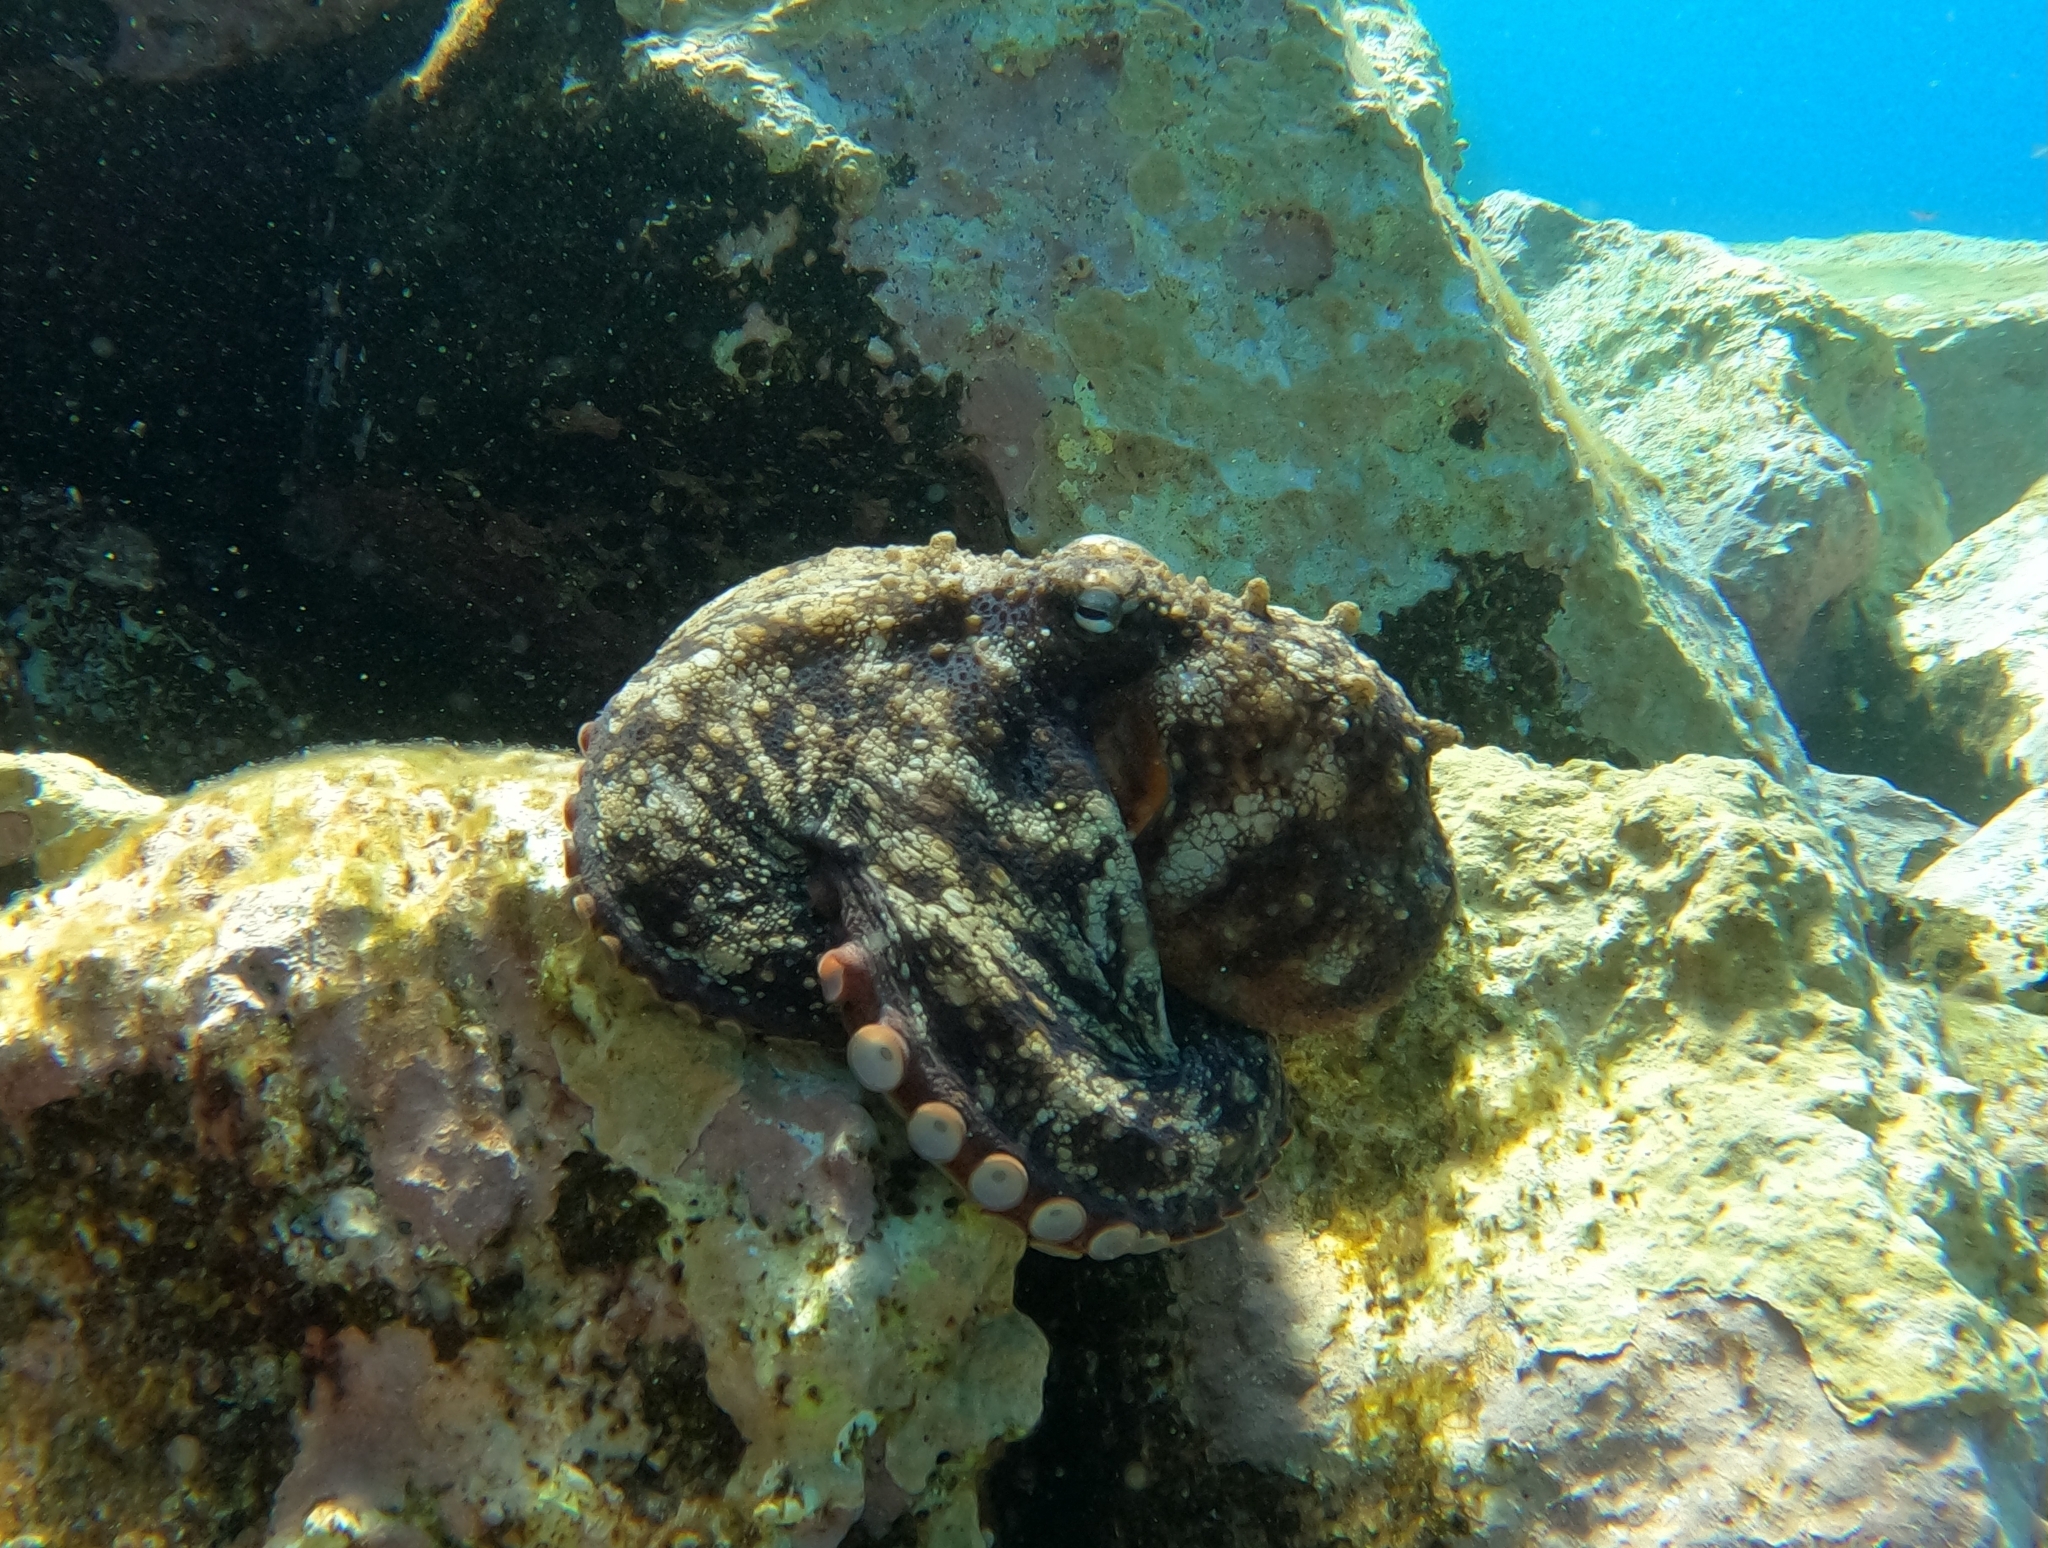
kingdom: Animalia
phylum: Mollusca
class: Cephalopoda
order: Octopoda
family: Octopodidae
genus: Octopus
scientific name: Octopus vulgaris
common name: Common octopus
